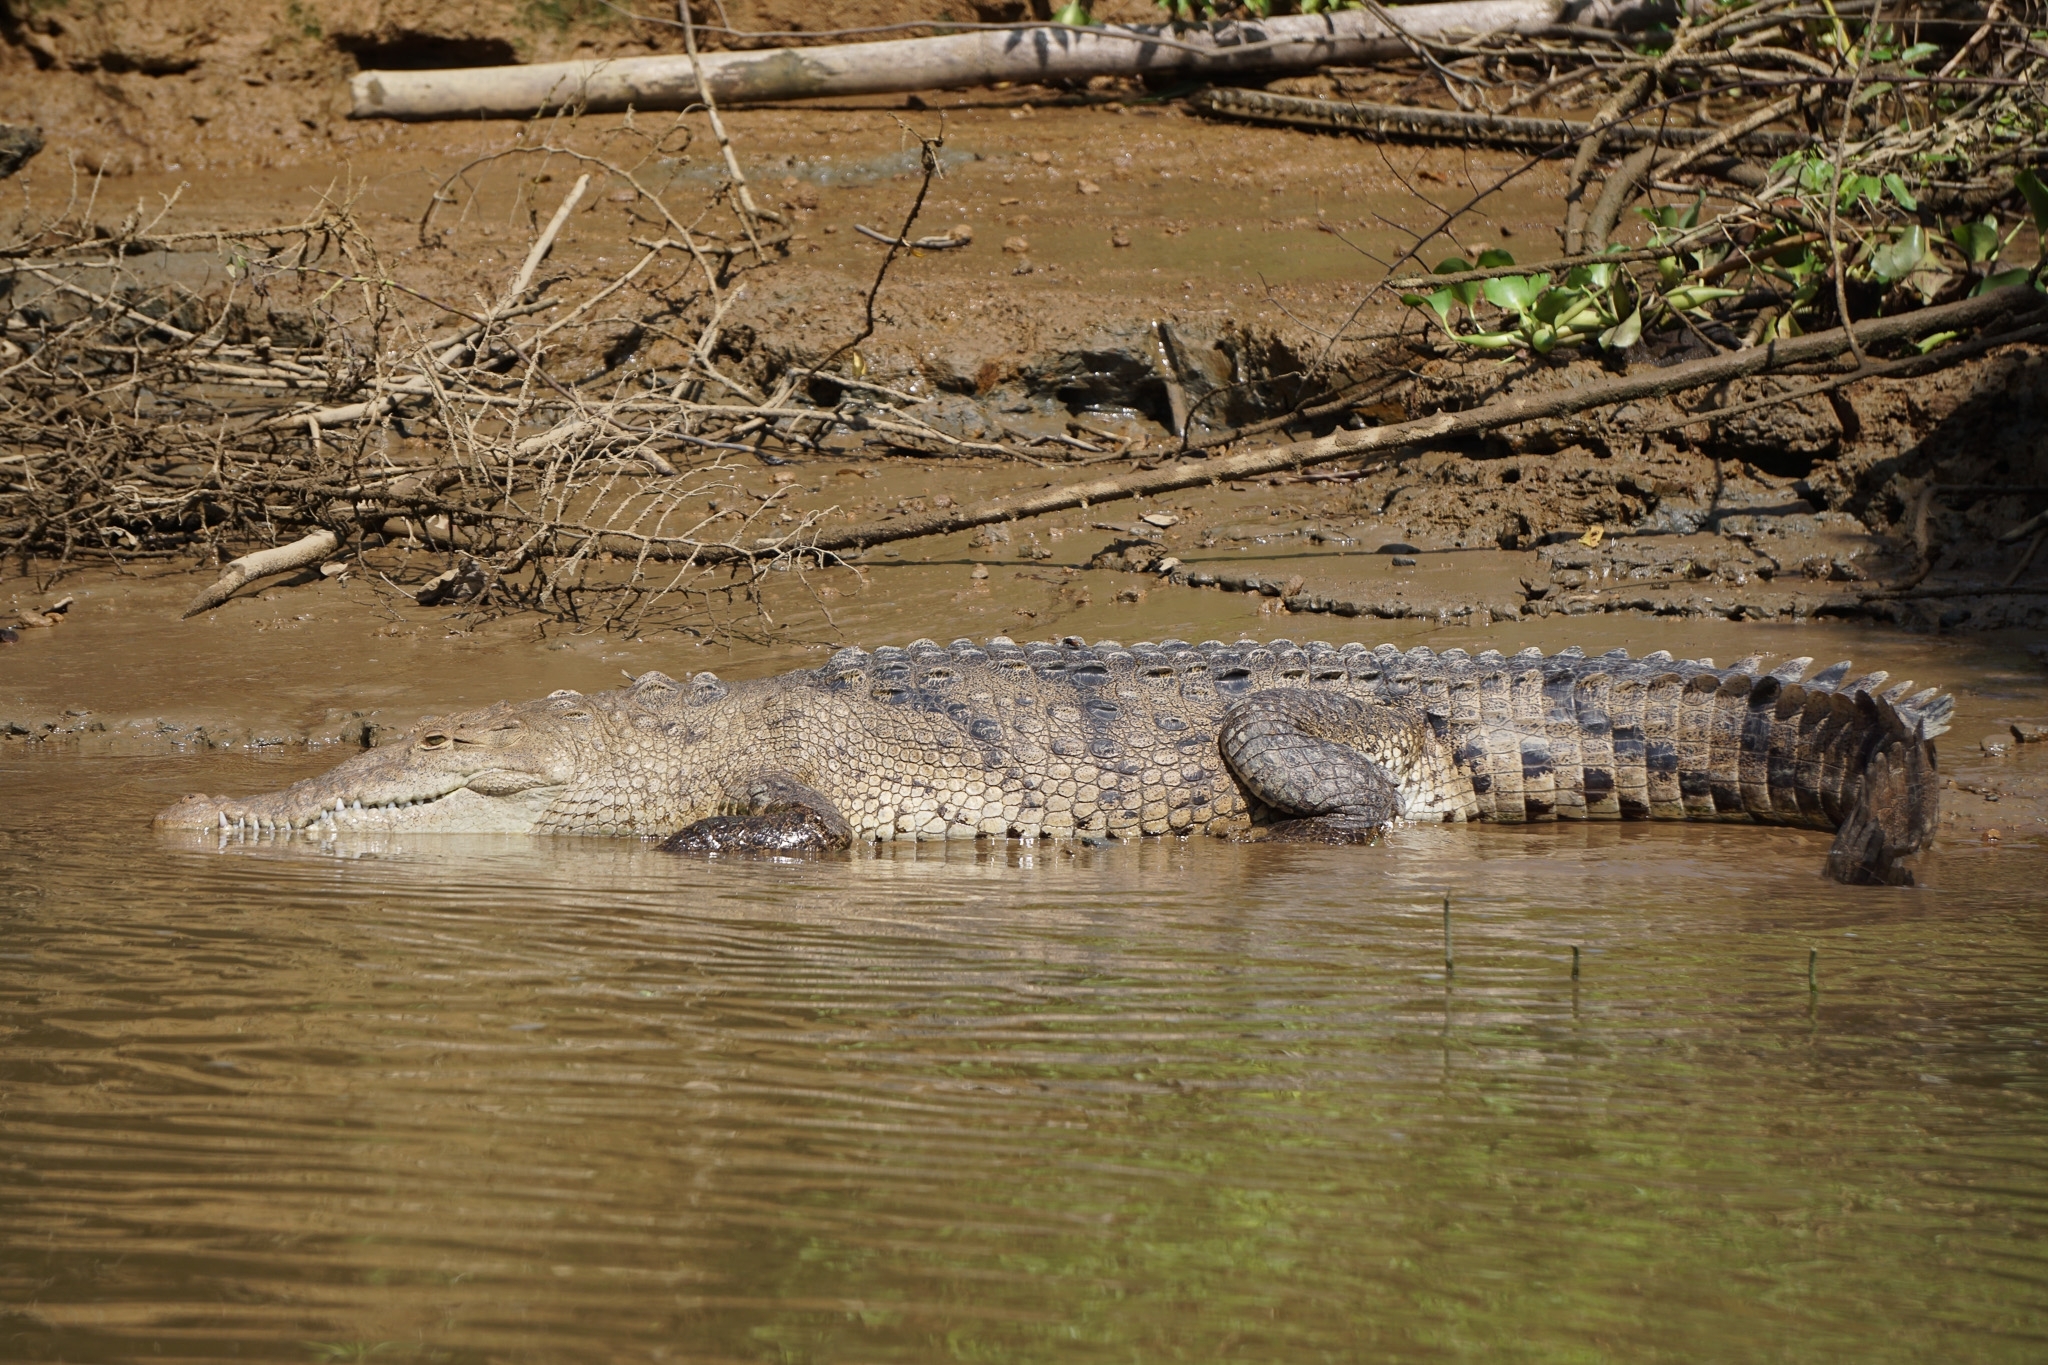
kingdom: Animalia
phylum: Chordata
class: Crocodylia
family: Crocodylidae
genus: Crocodylus
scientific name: Crocodylus acutus
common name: American crocodile
